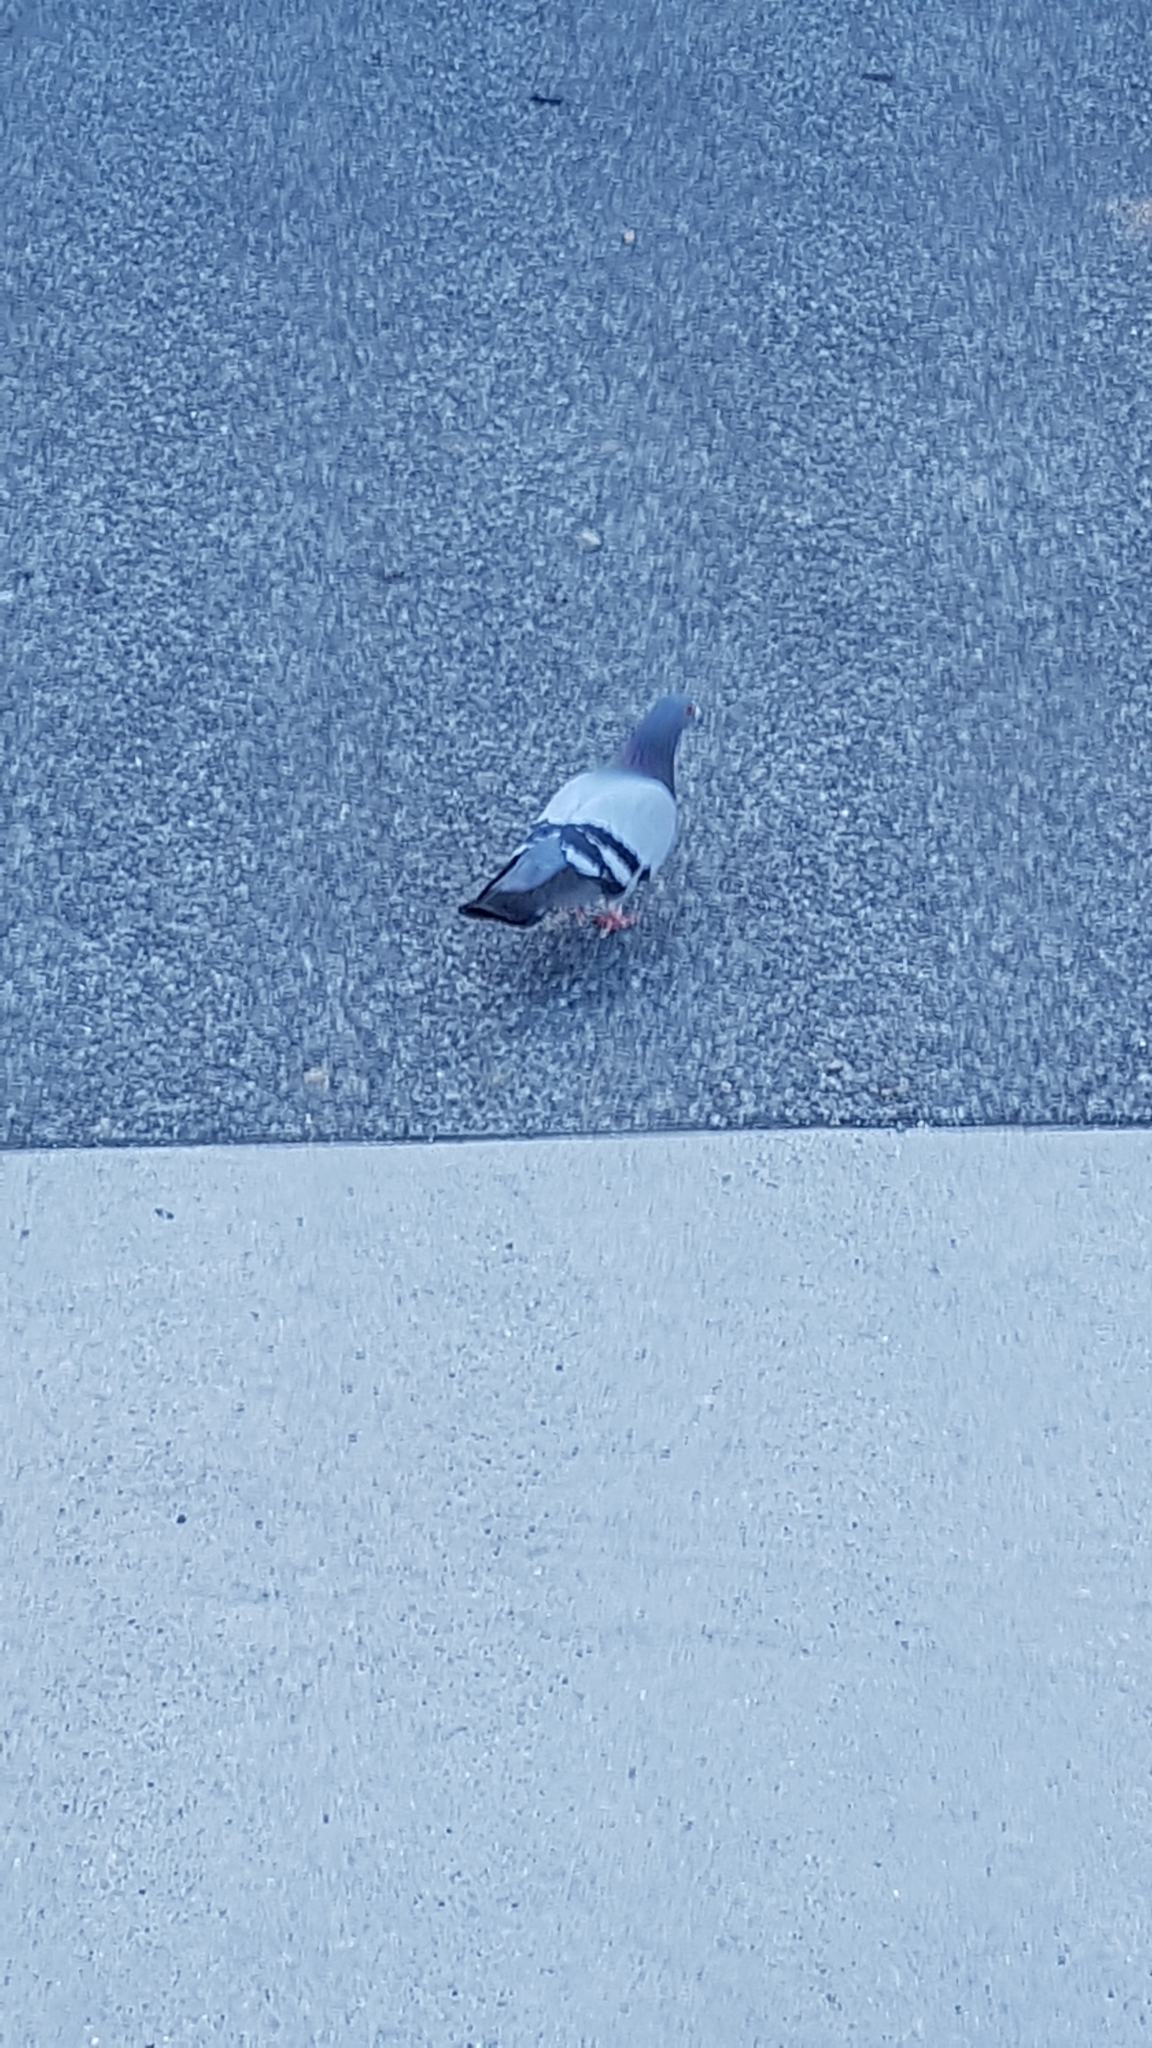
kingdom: Animalia
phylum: Chordata
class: Aves
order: Columbiformes
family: Columbidae
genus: Columba
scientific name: Columba livia
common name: Rock pigeon
